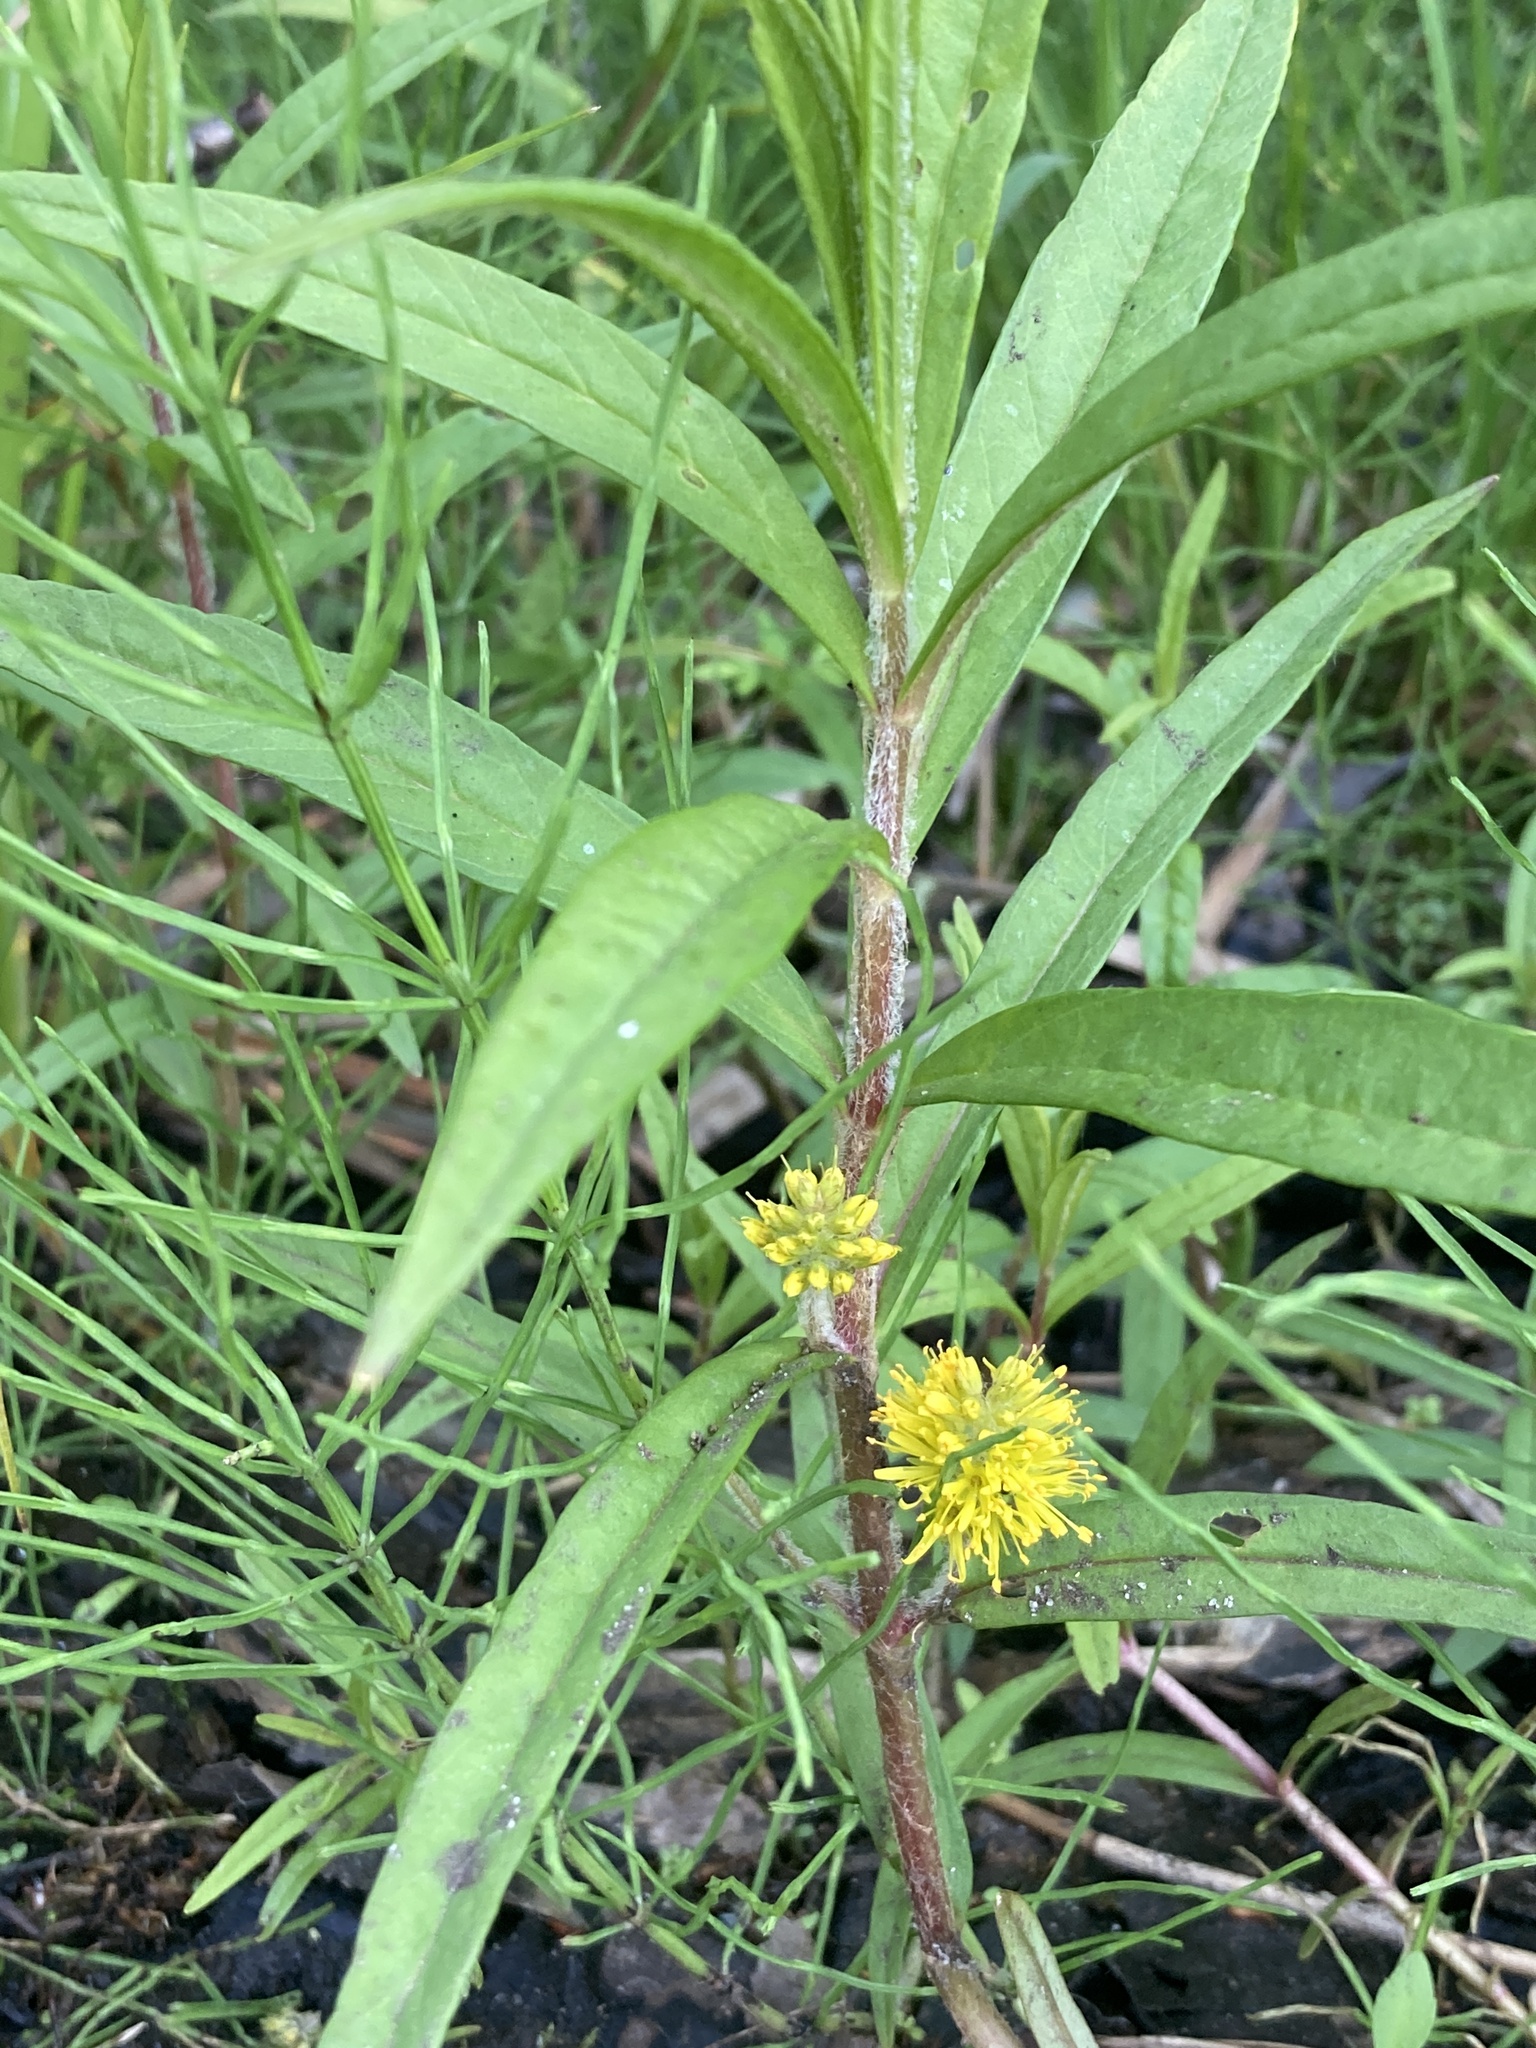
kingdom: Plantae
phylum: Tracheophyta
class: Magnoliopsida
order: Ericales
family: Primulaceae
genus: Lysimachia
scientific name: Lysimachia thyrsiflora
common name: Tufted loosestrife
